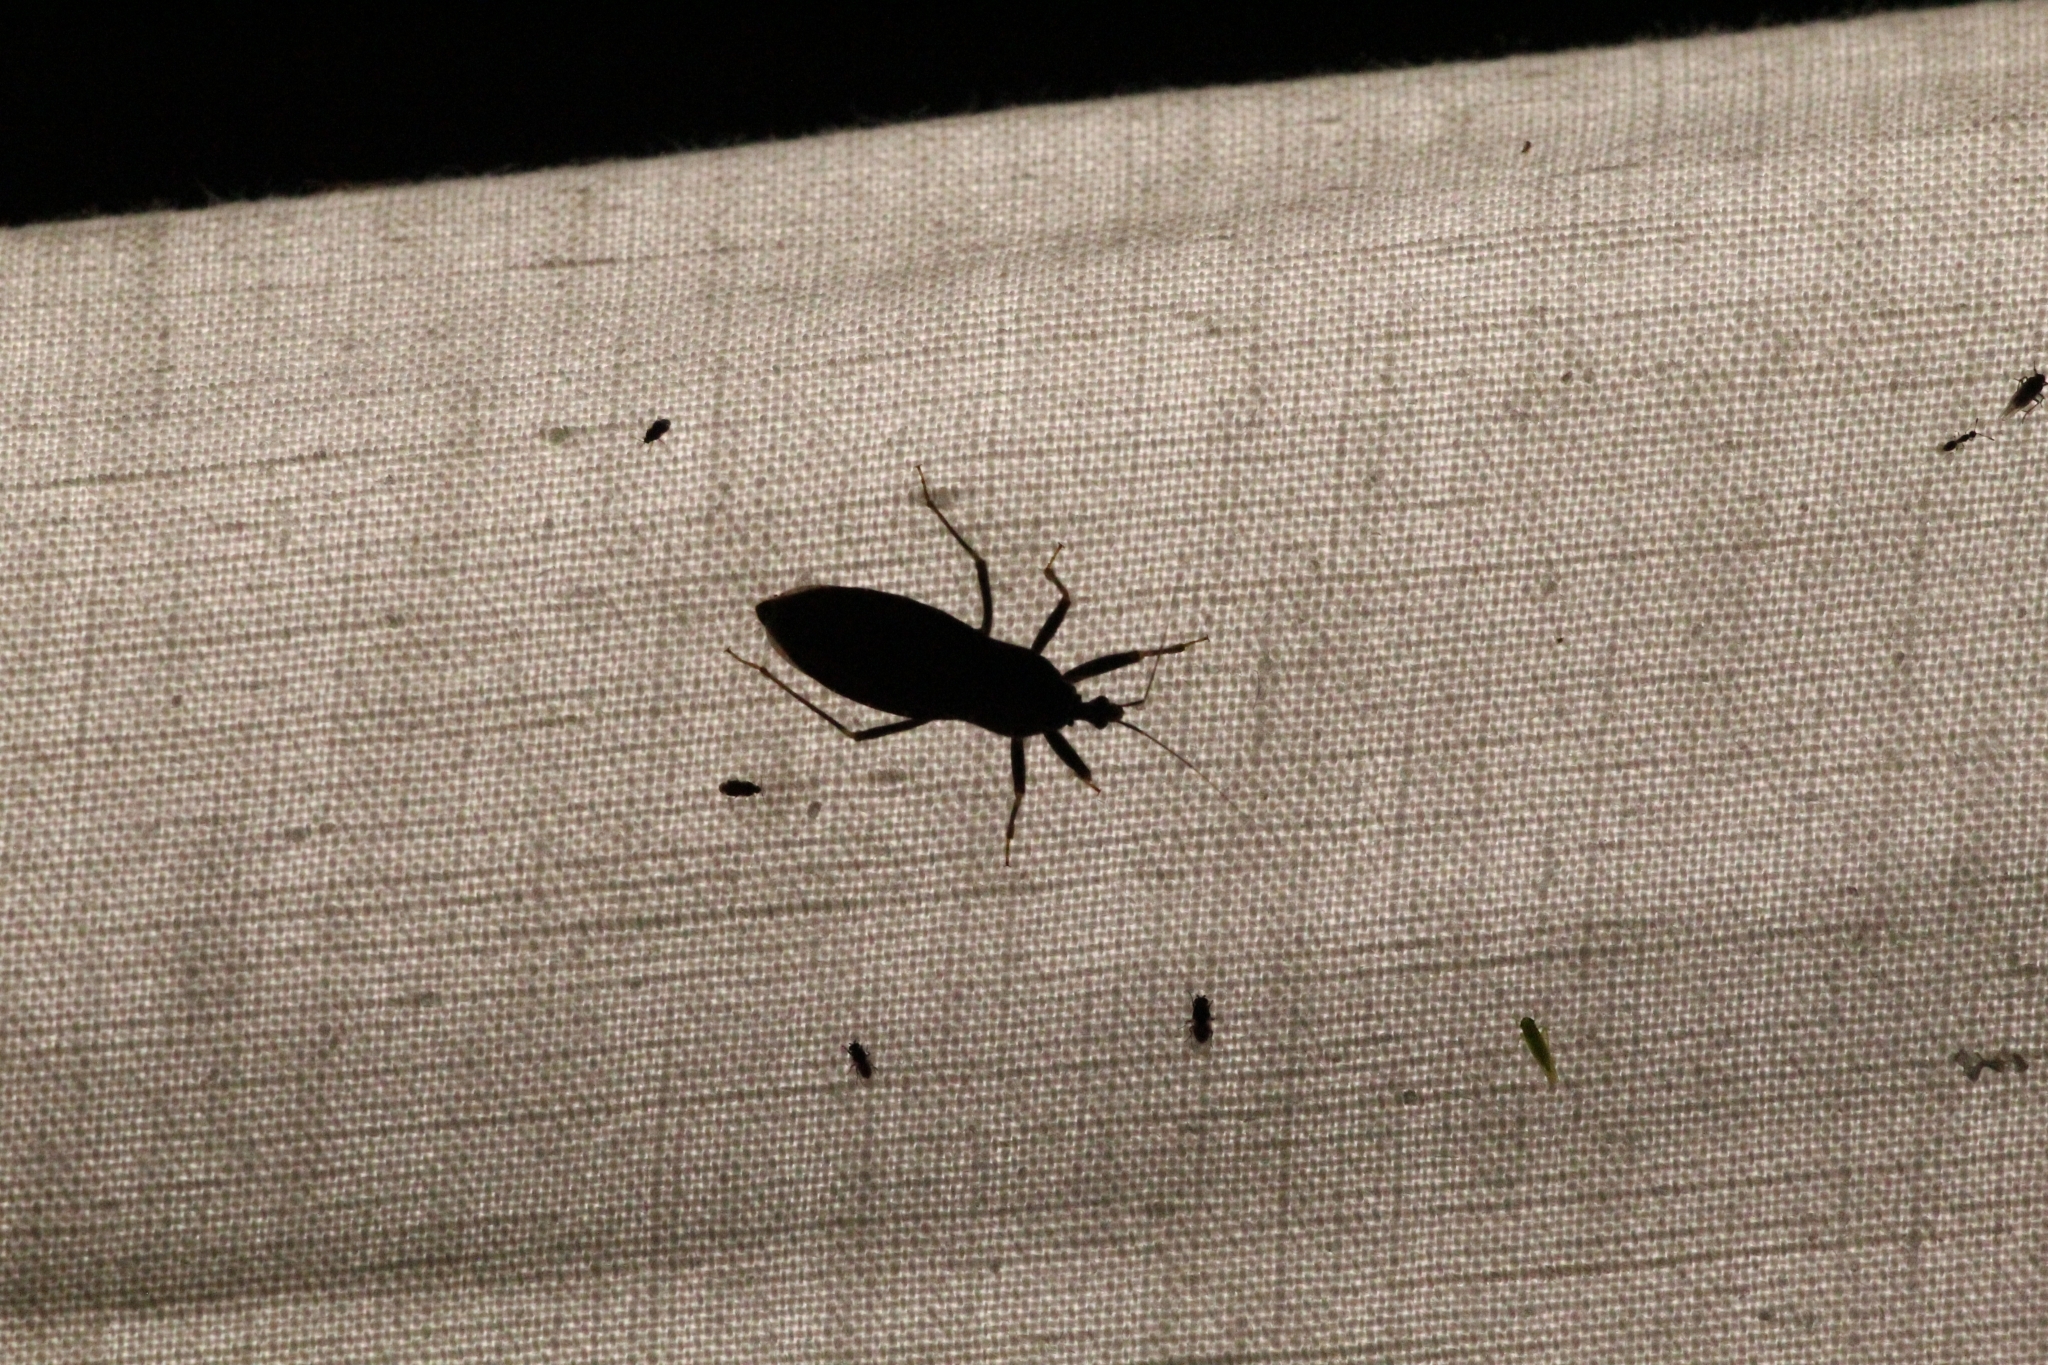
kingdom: Animalia
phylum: Arthropoda
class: Insecta
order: Hemiptera
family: Reduviidae
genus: Reduvius
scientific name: Reduvius personatus
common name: Masked hunter
